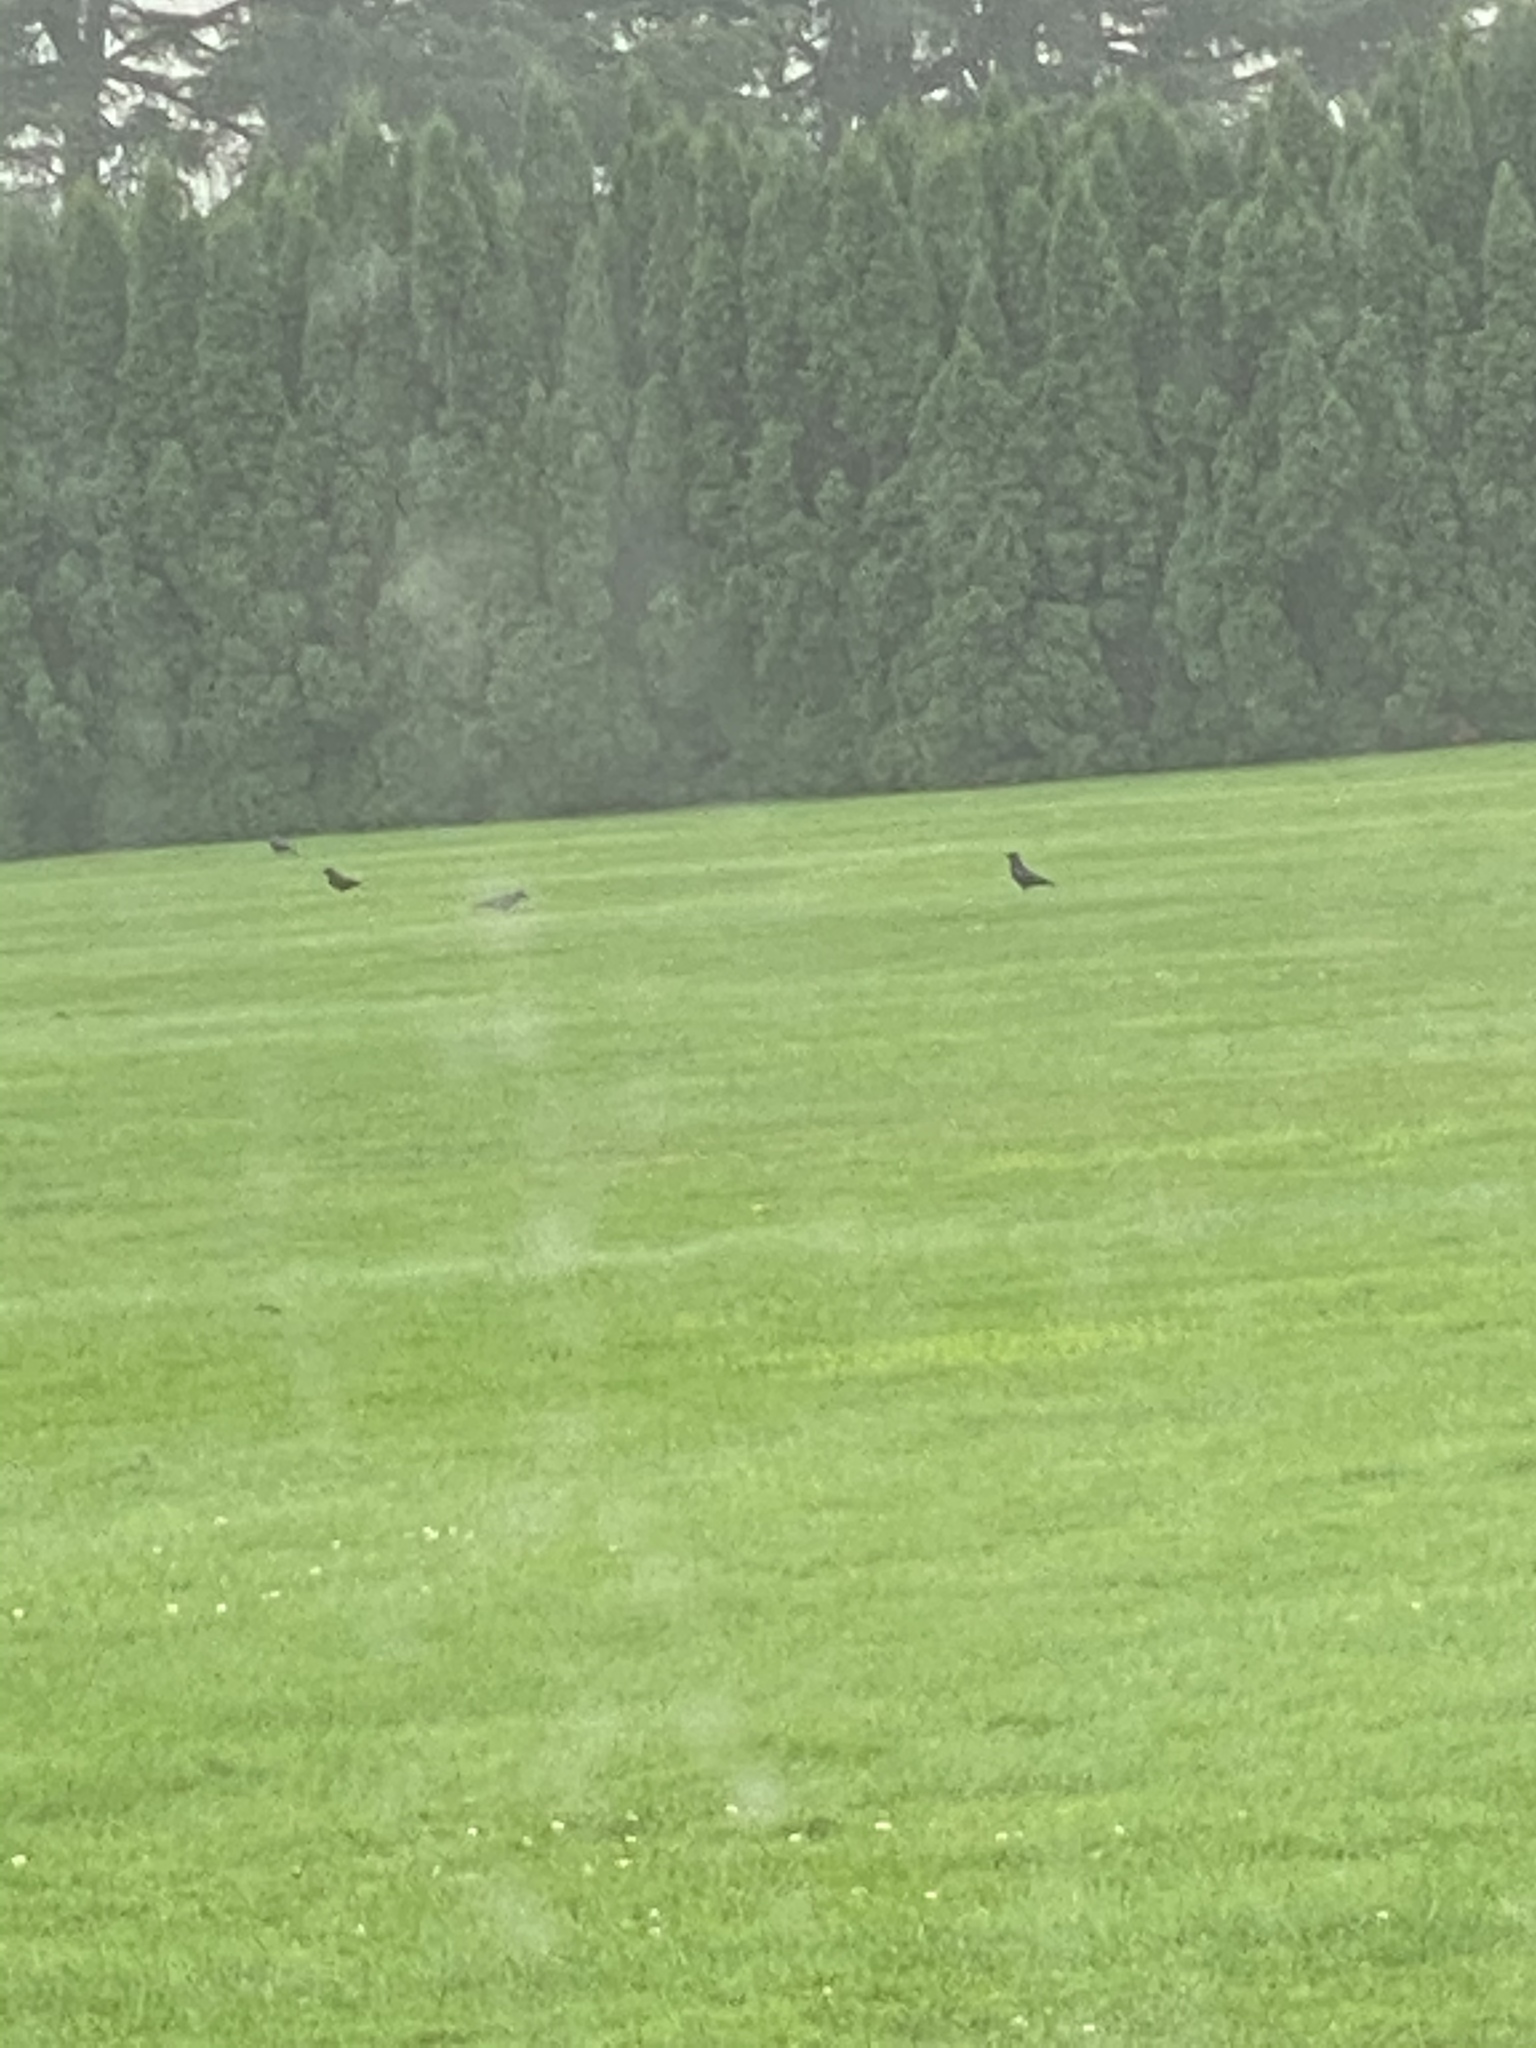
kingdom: Animalia
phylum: Chordata
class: Aves
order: Passeriformes
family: Corvidae
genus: Corvus
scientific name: Corvus brachyrhynchos
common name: American crow
